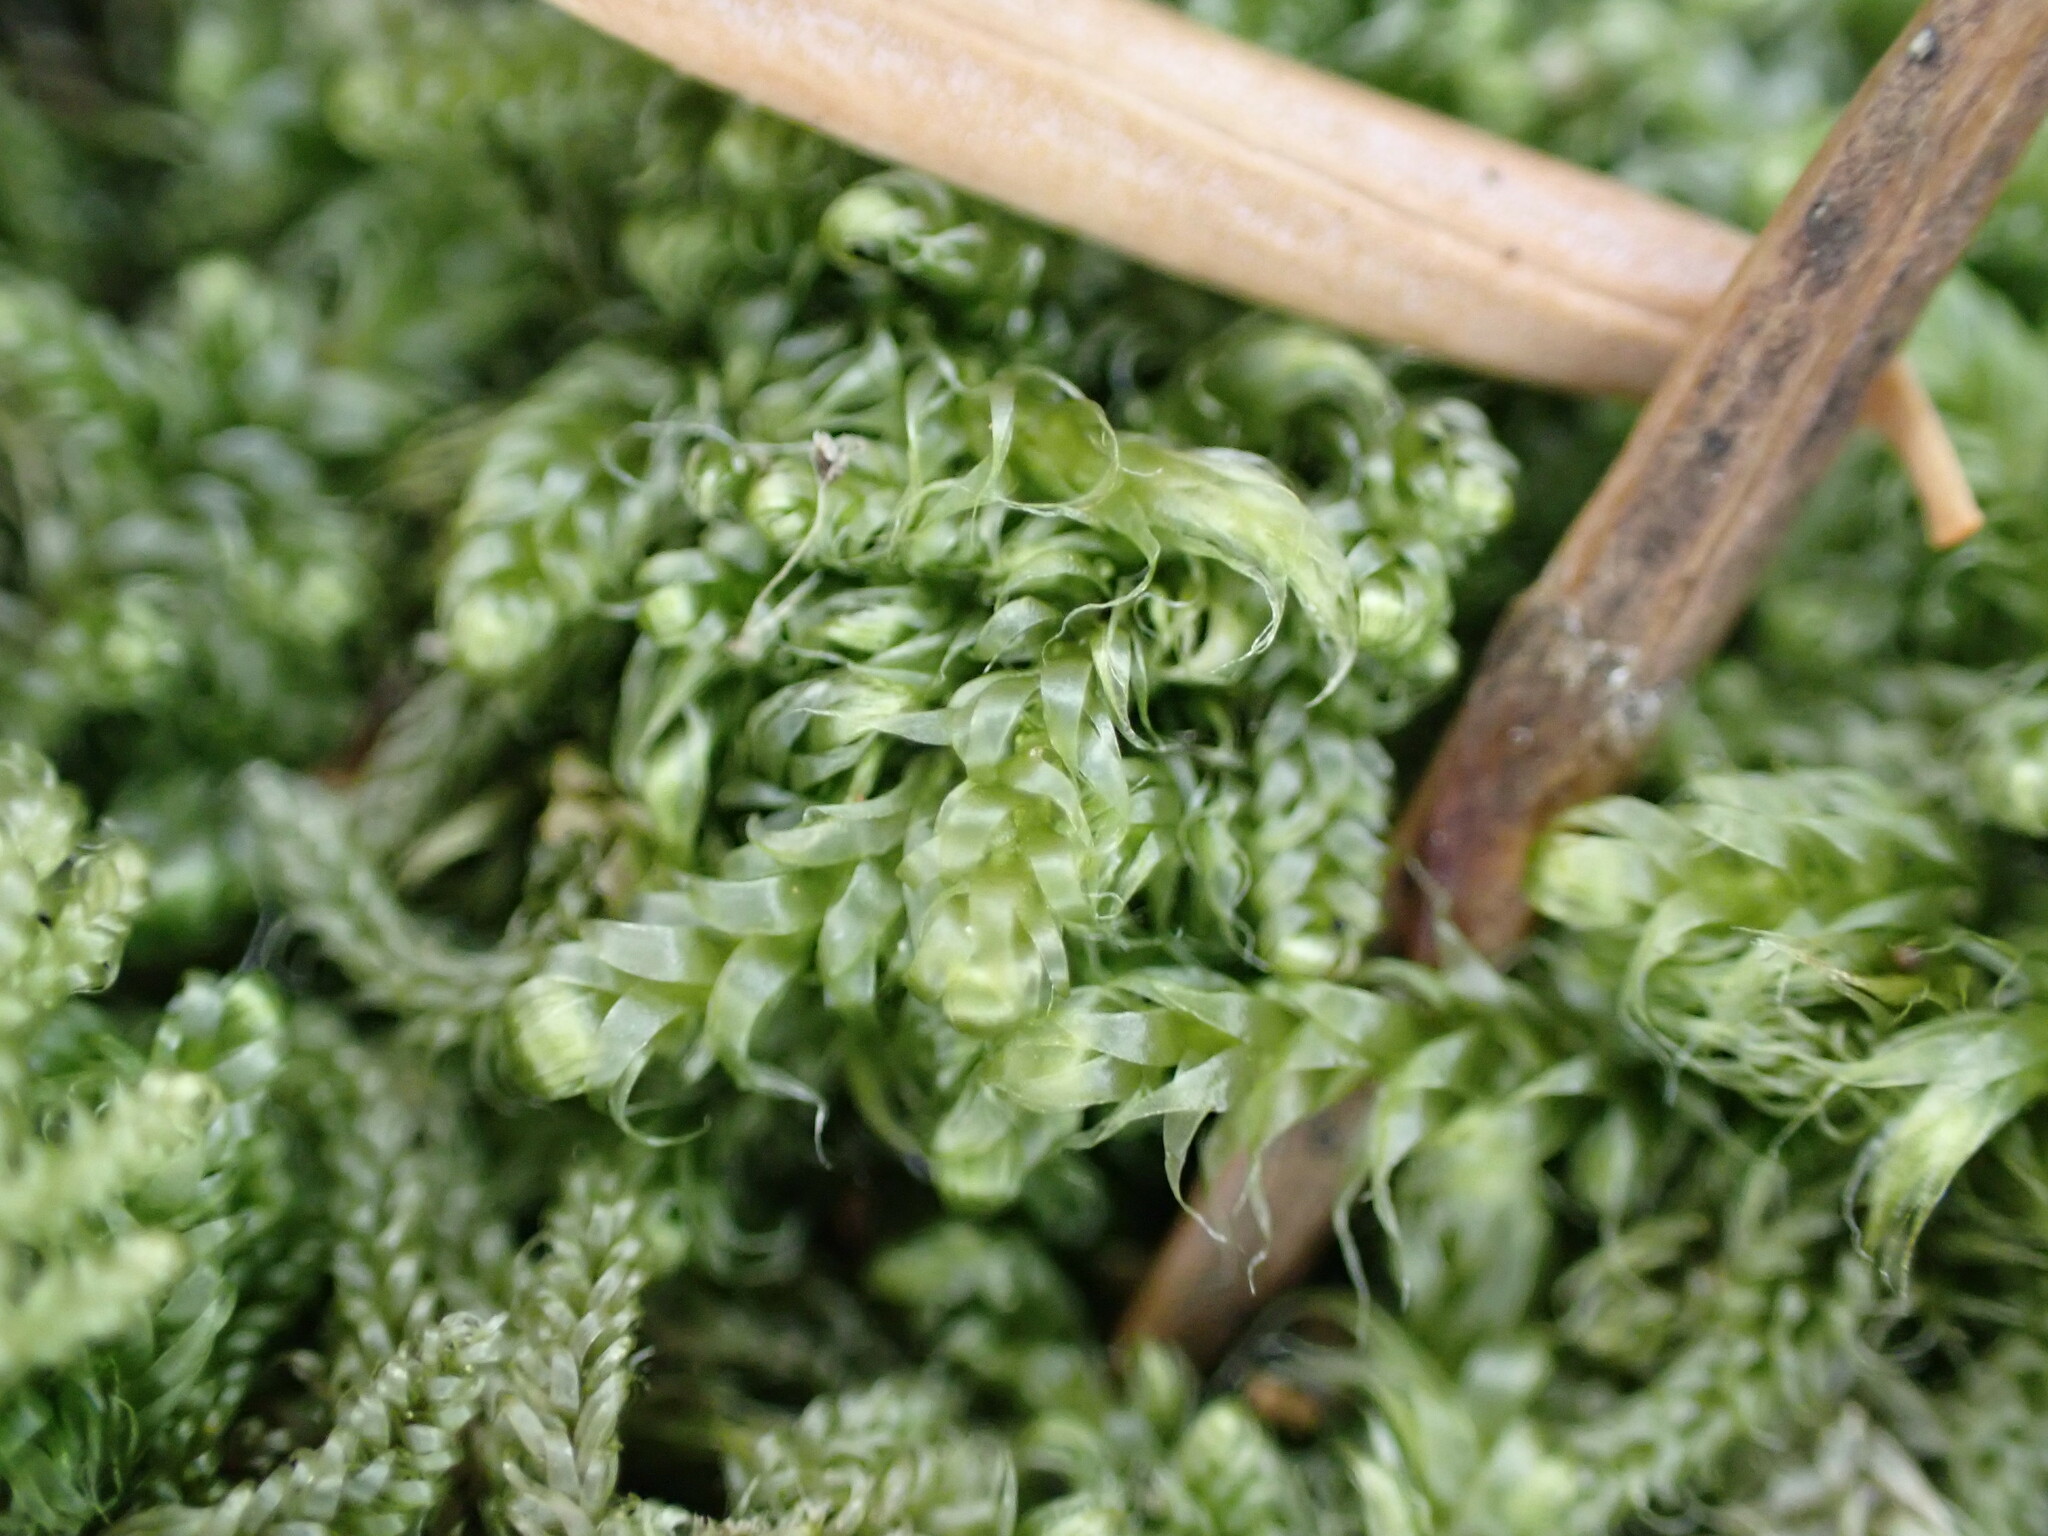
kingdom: Plantae
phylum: Bryophyta
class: Bryopsida
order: Hypnales
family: Pylaisiadelphaceae
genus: Trochophyllohypnum
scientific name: Trochophyllohypnum circinale
